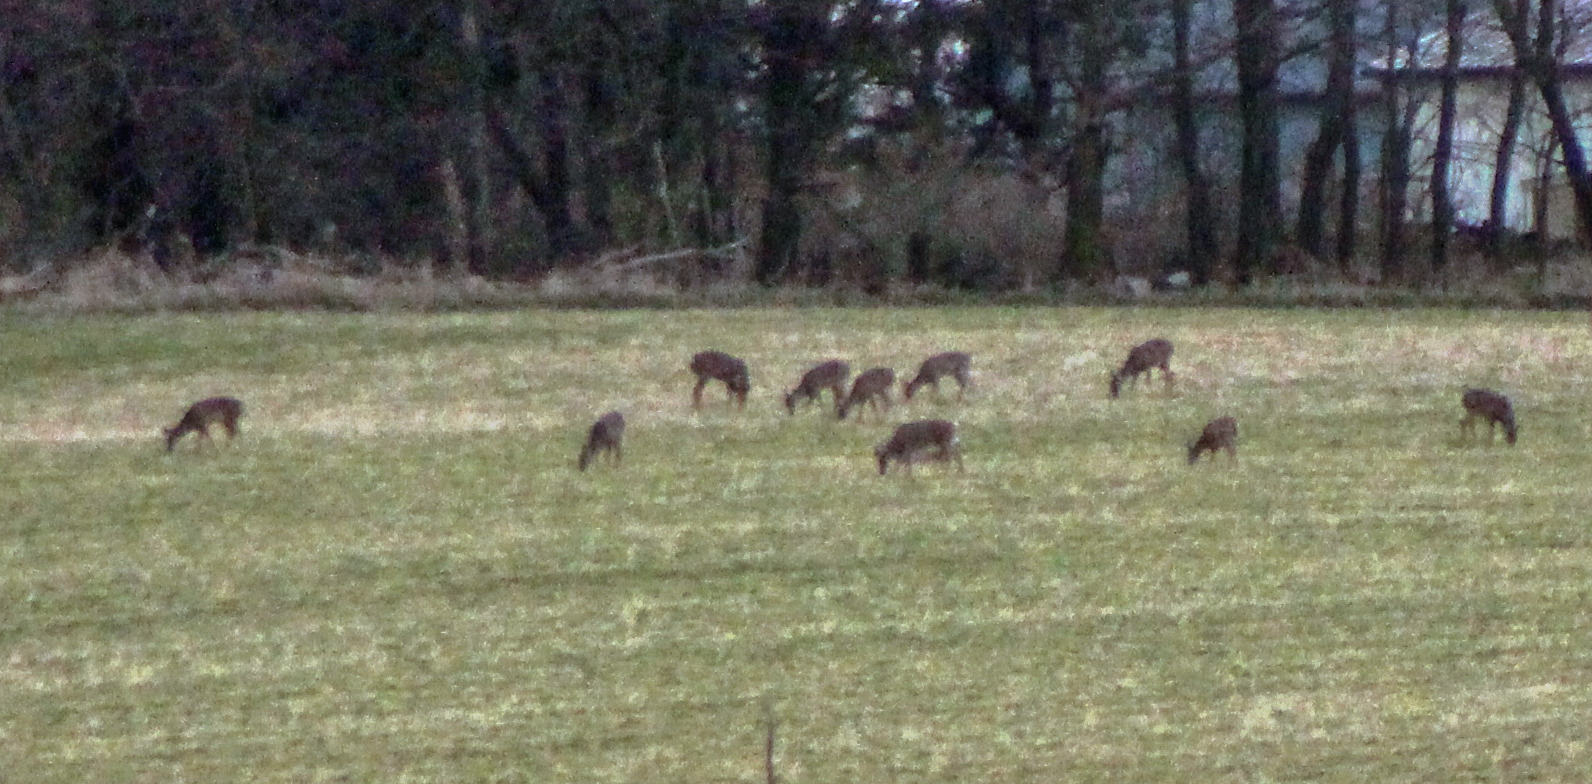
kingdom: Animalia
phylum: Chordata
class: Mammalia
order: Artiodactyla
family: Cervidae
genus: Odocoileus
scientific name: Odocoileus virginianus
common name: White-tailed deer
